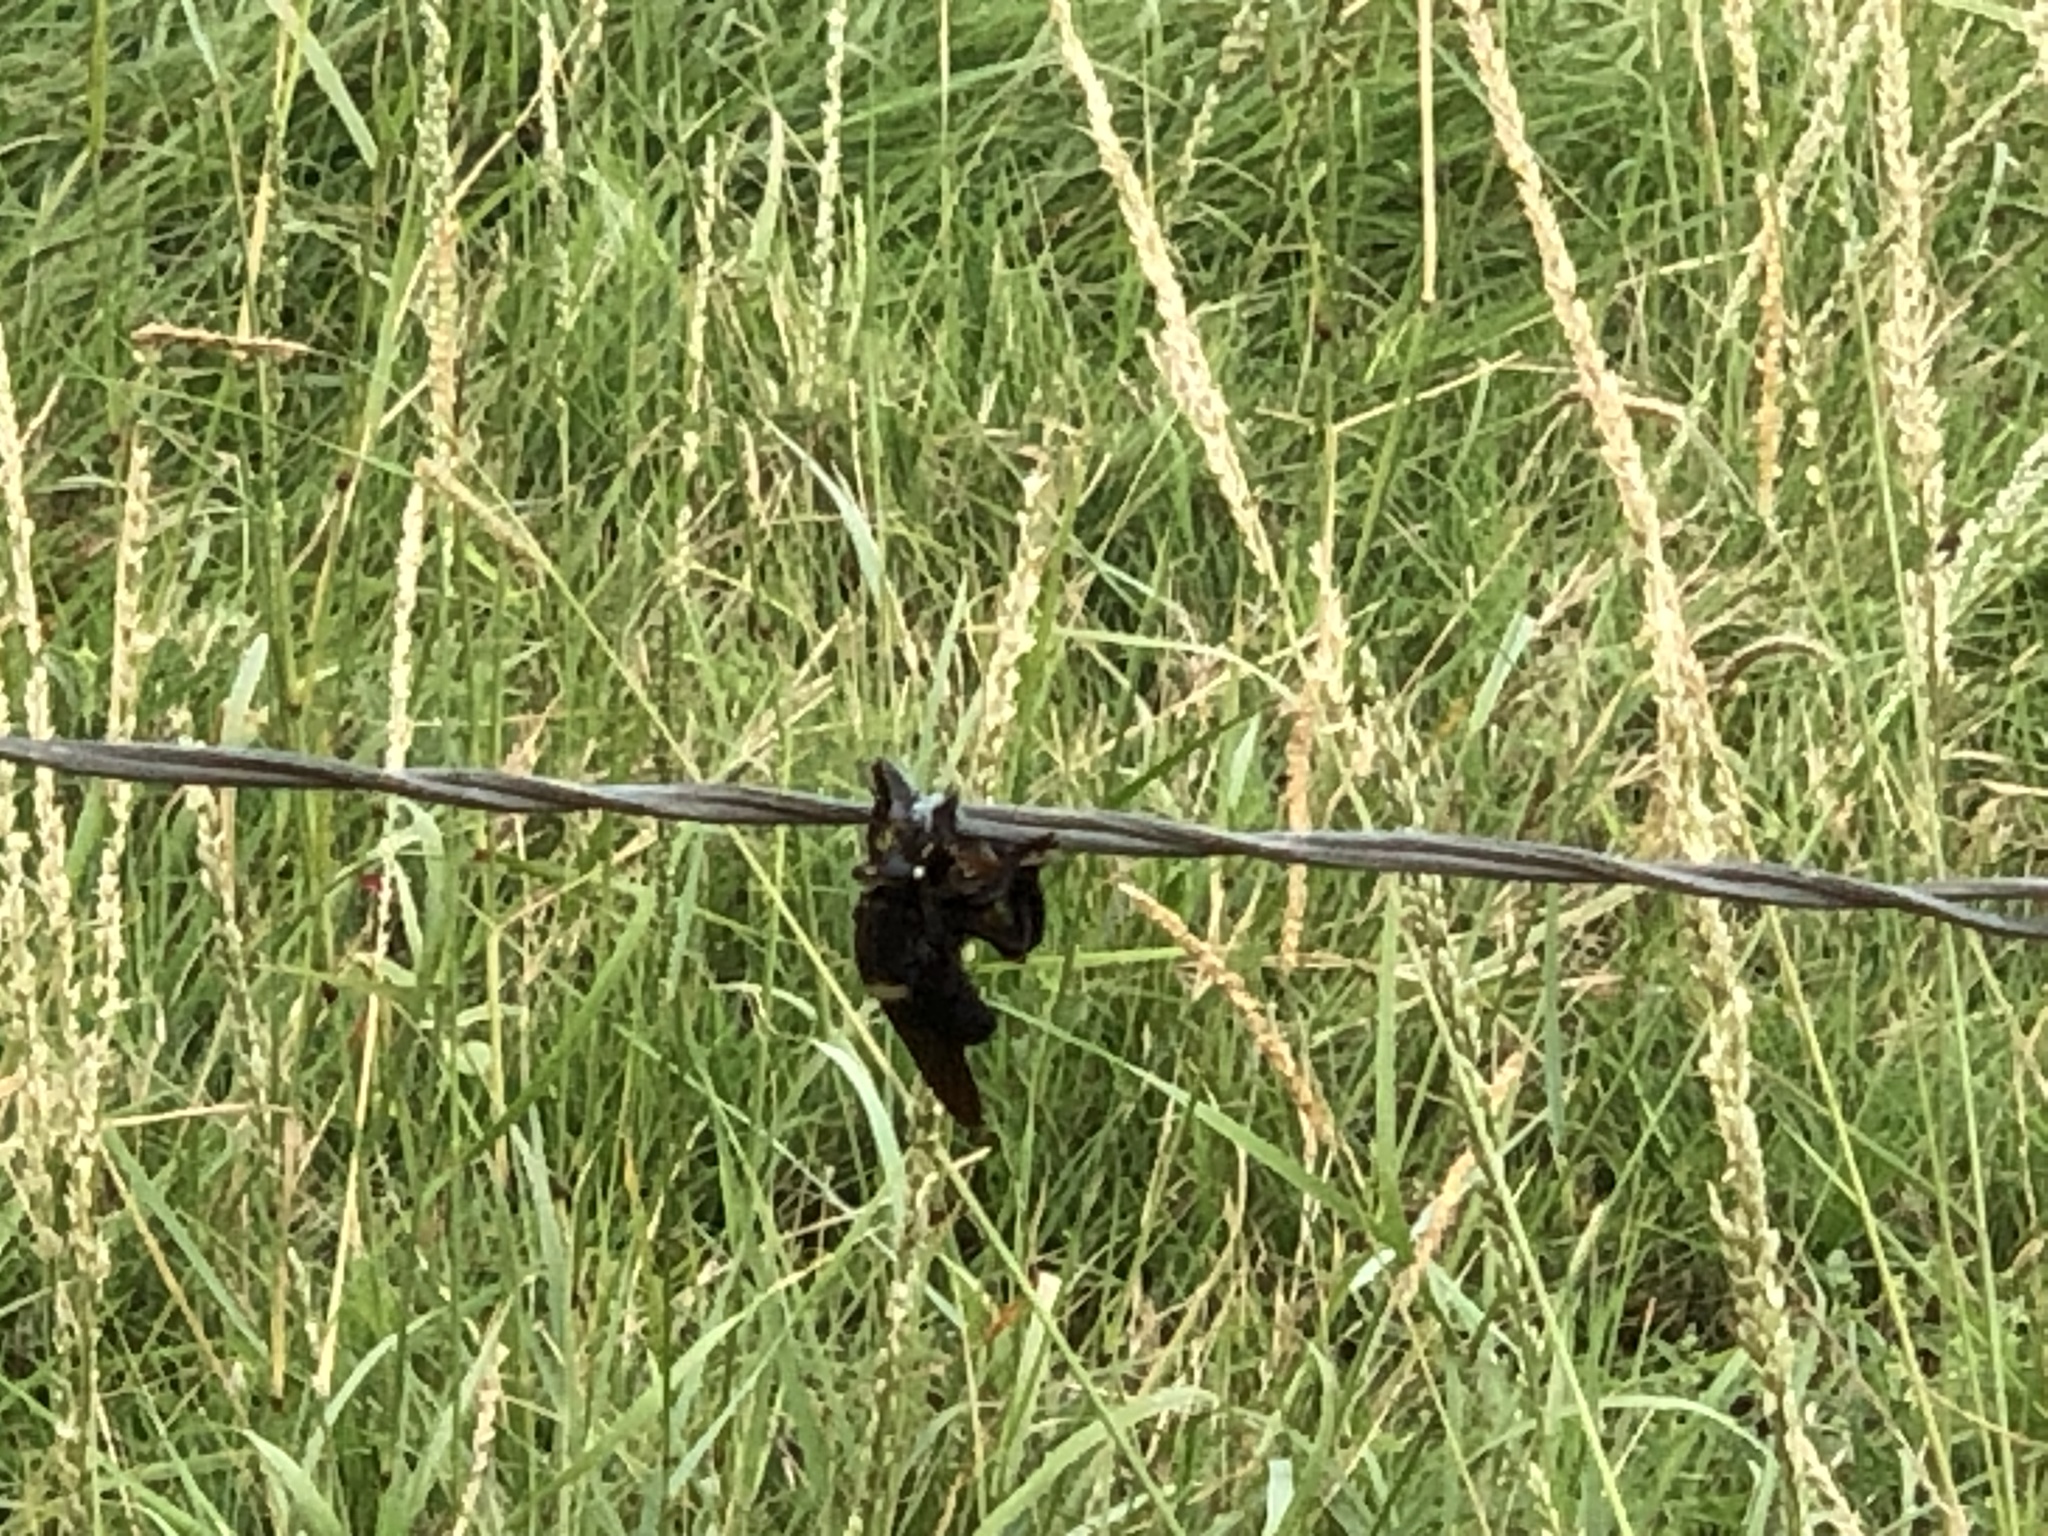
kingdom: Animalia
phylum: Arthropoda
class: Insecta
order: Diptera
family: Asilidae
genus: Mallophora
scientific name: Mallophora leschenaultii
